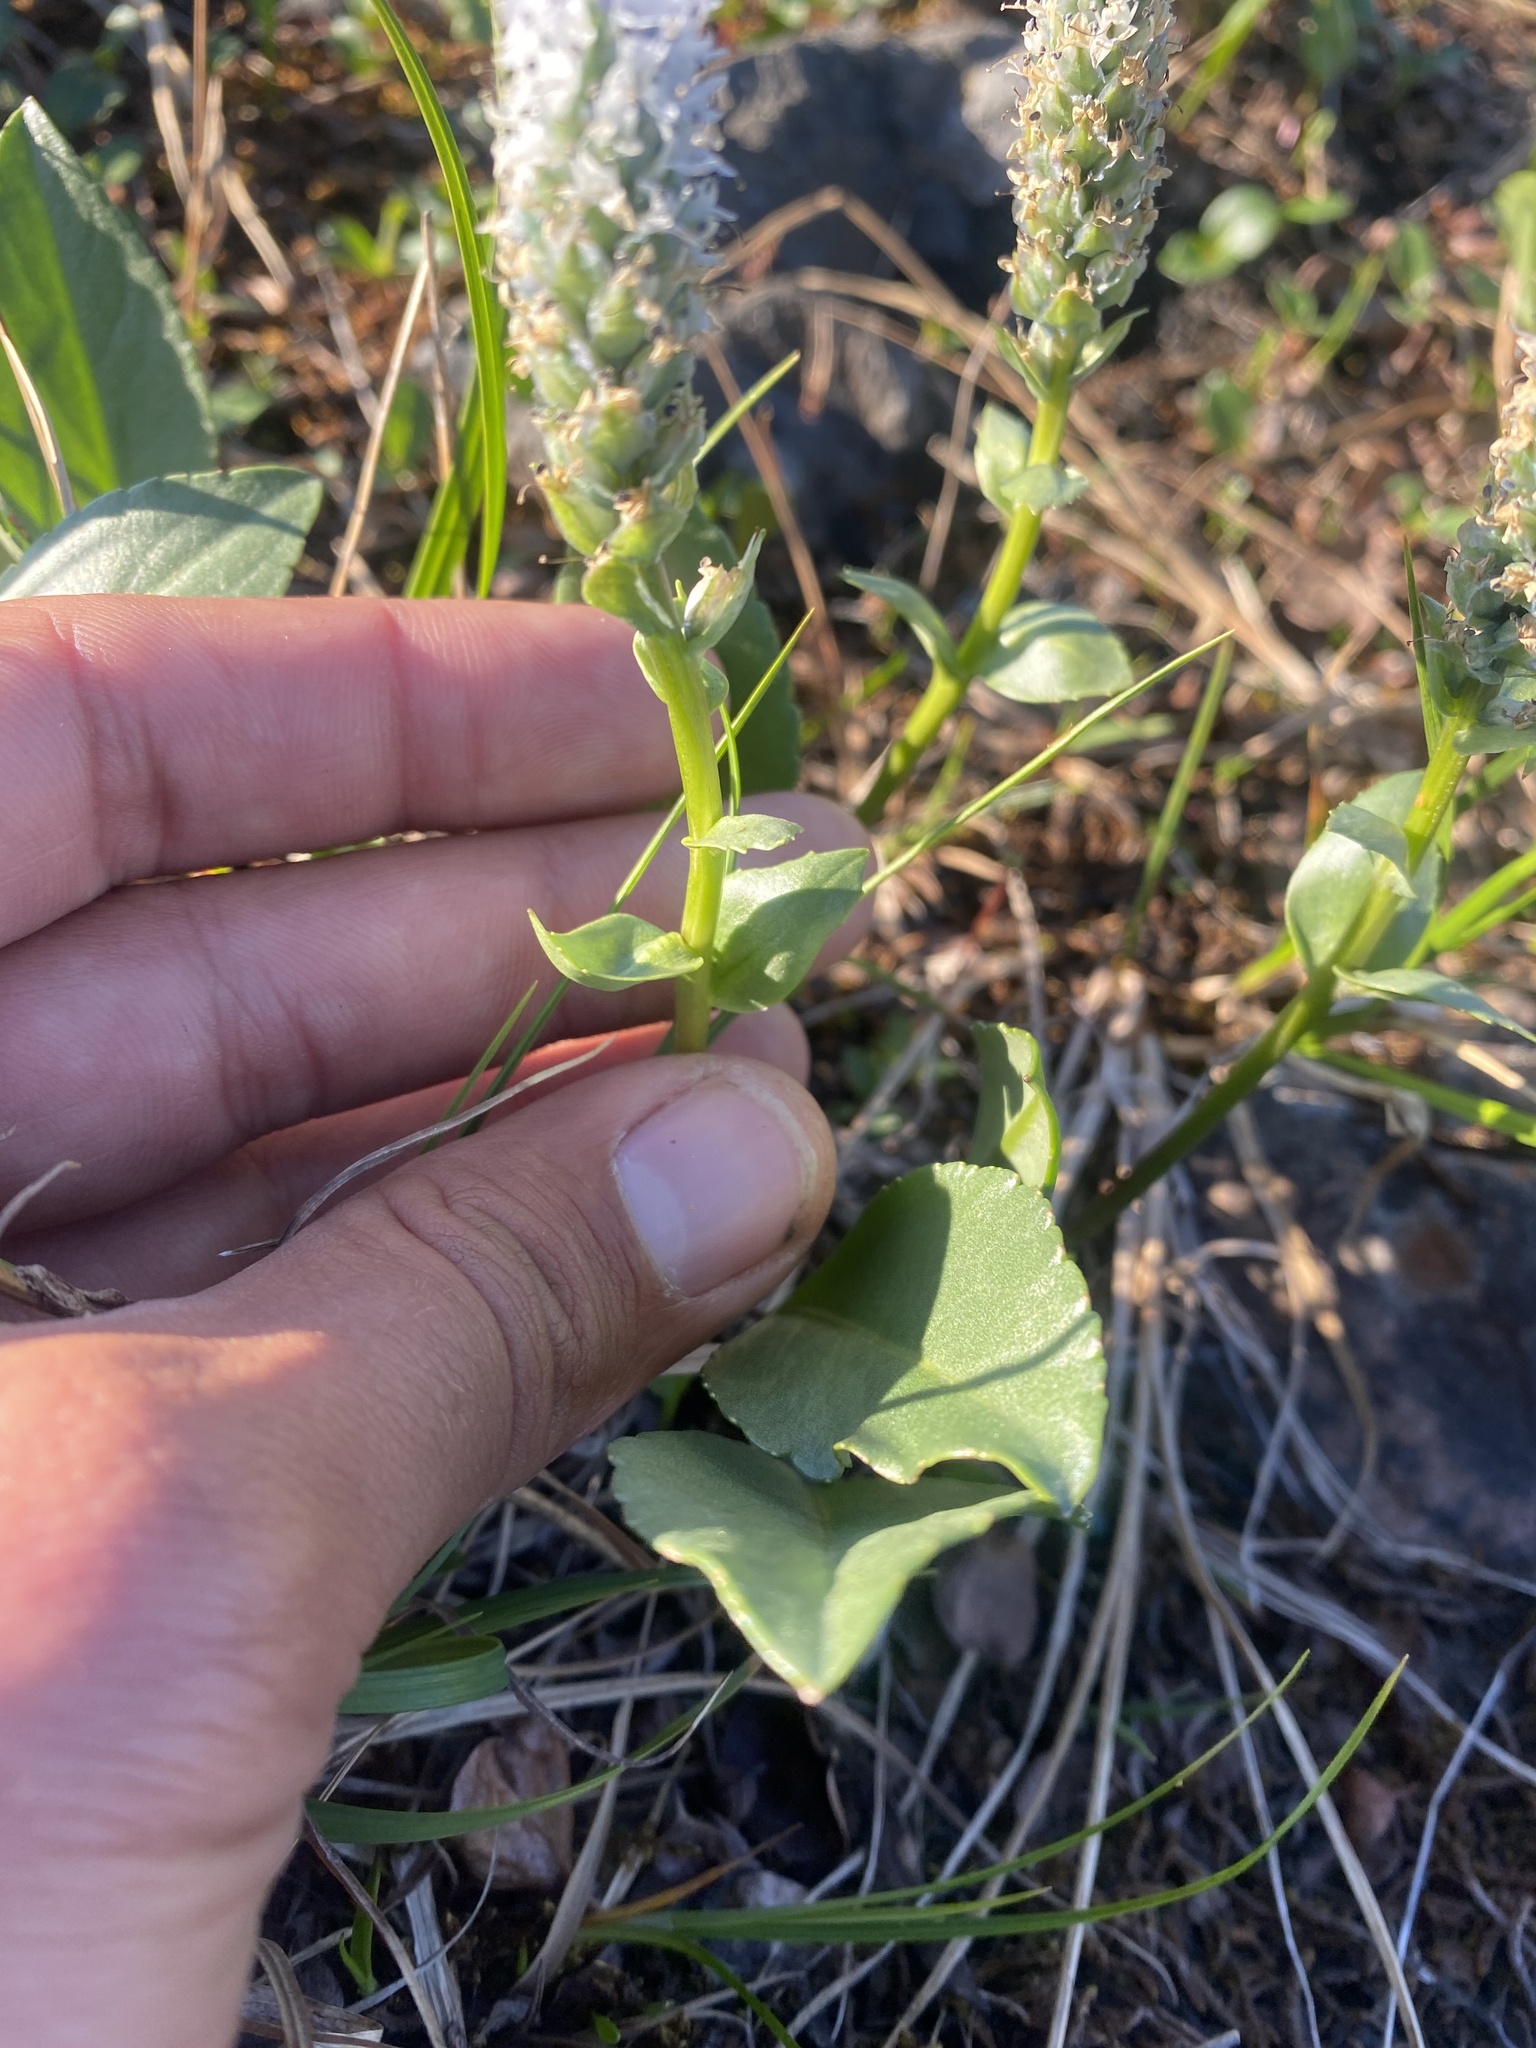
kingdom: Plantae
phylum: Tracheophyta
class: Magnoliopsida
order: Lamiales
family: Plantaginaceae
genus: Lagotis
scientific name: Lagotis glauca
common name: Glaucous weaselsnout
